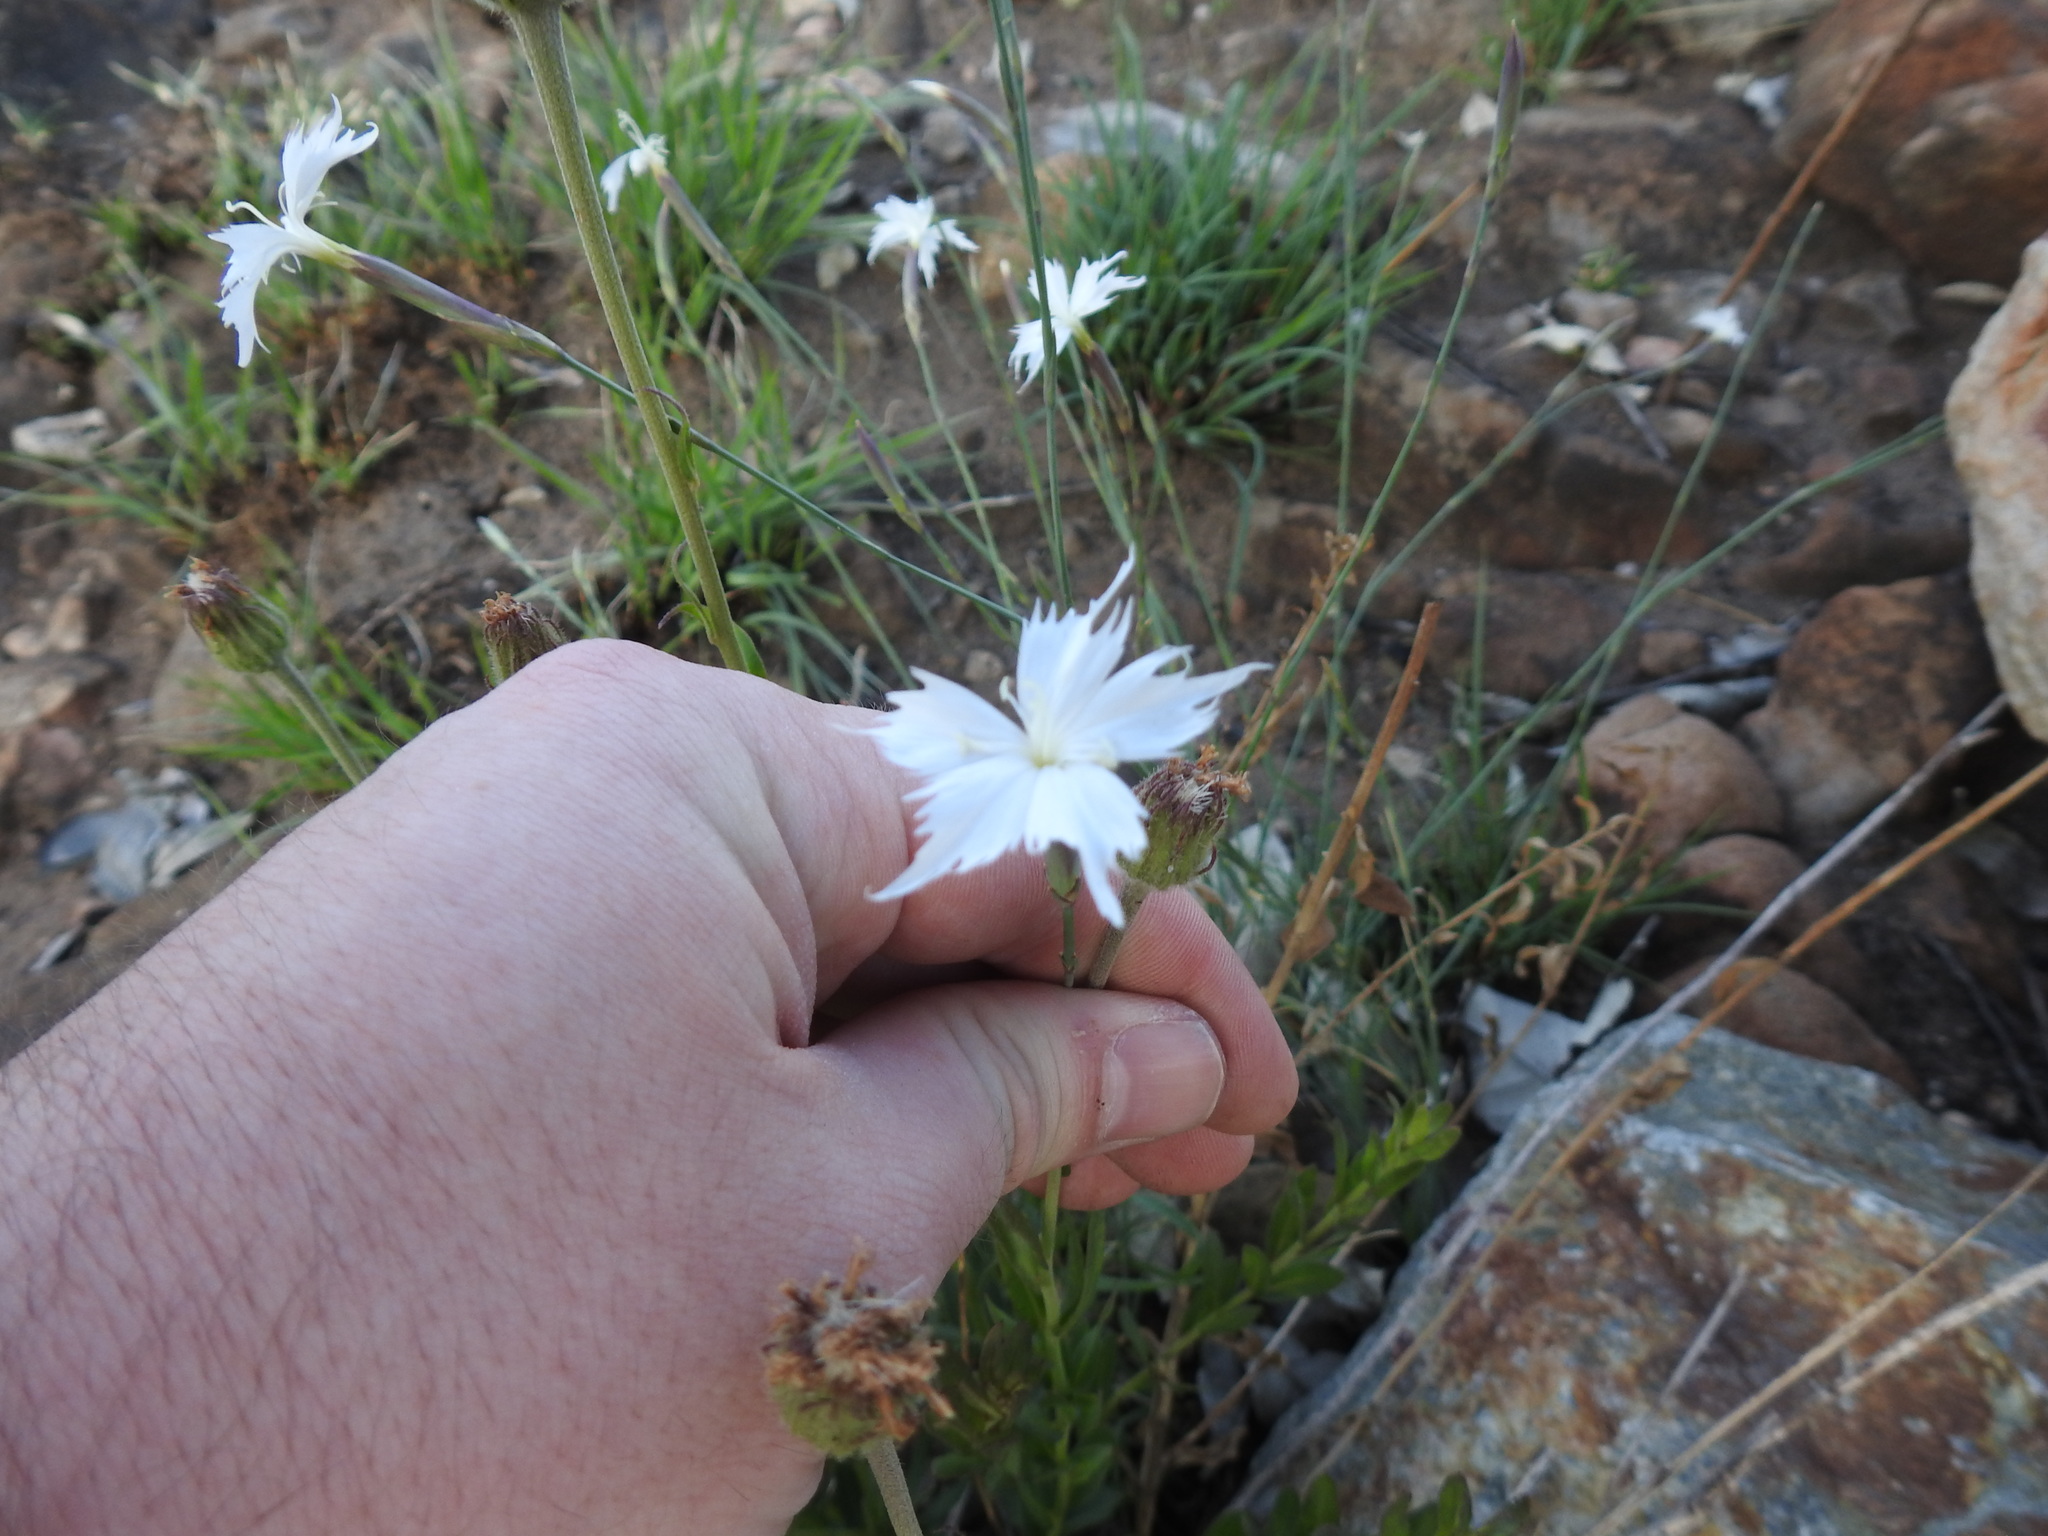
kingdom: Plantae
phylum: Tracheophyta
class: Magnoliopsida
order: Caryophyllales
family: Caryophyllaceae
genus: Dianthus
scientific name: Dianthus mooiensis
